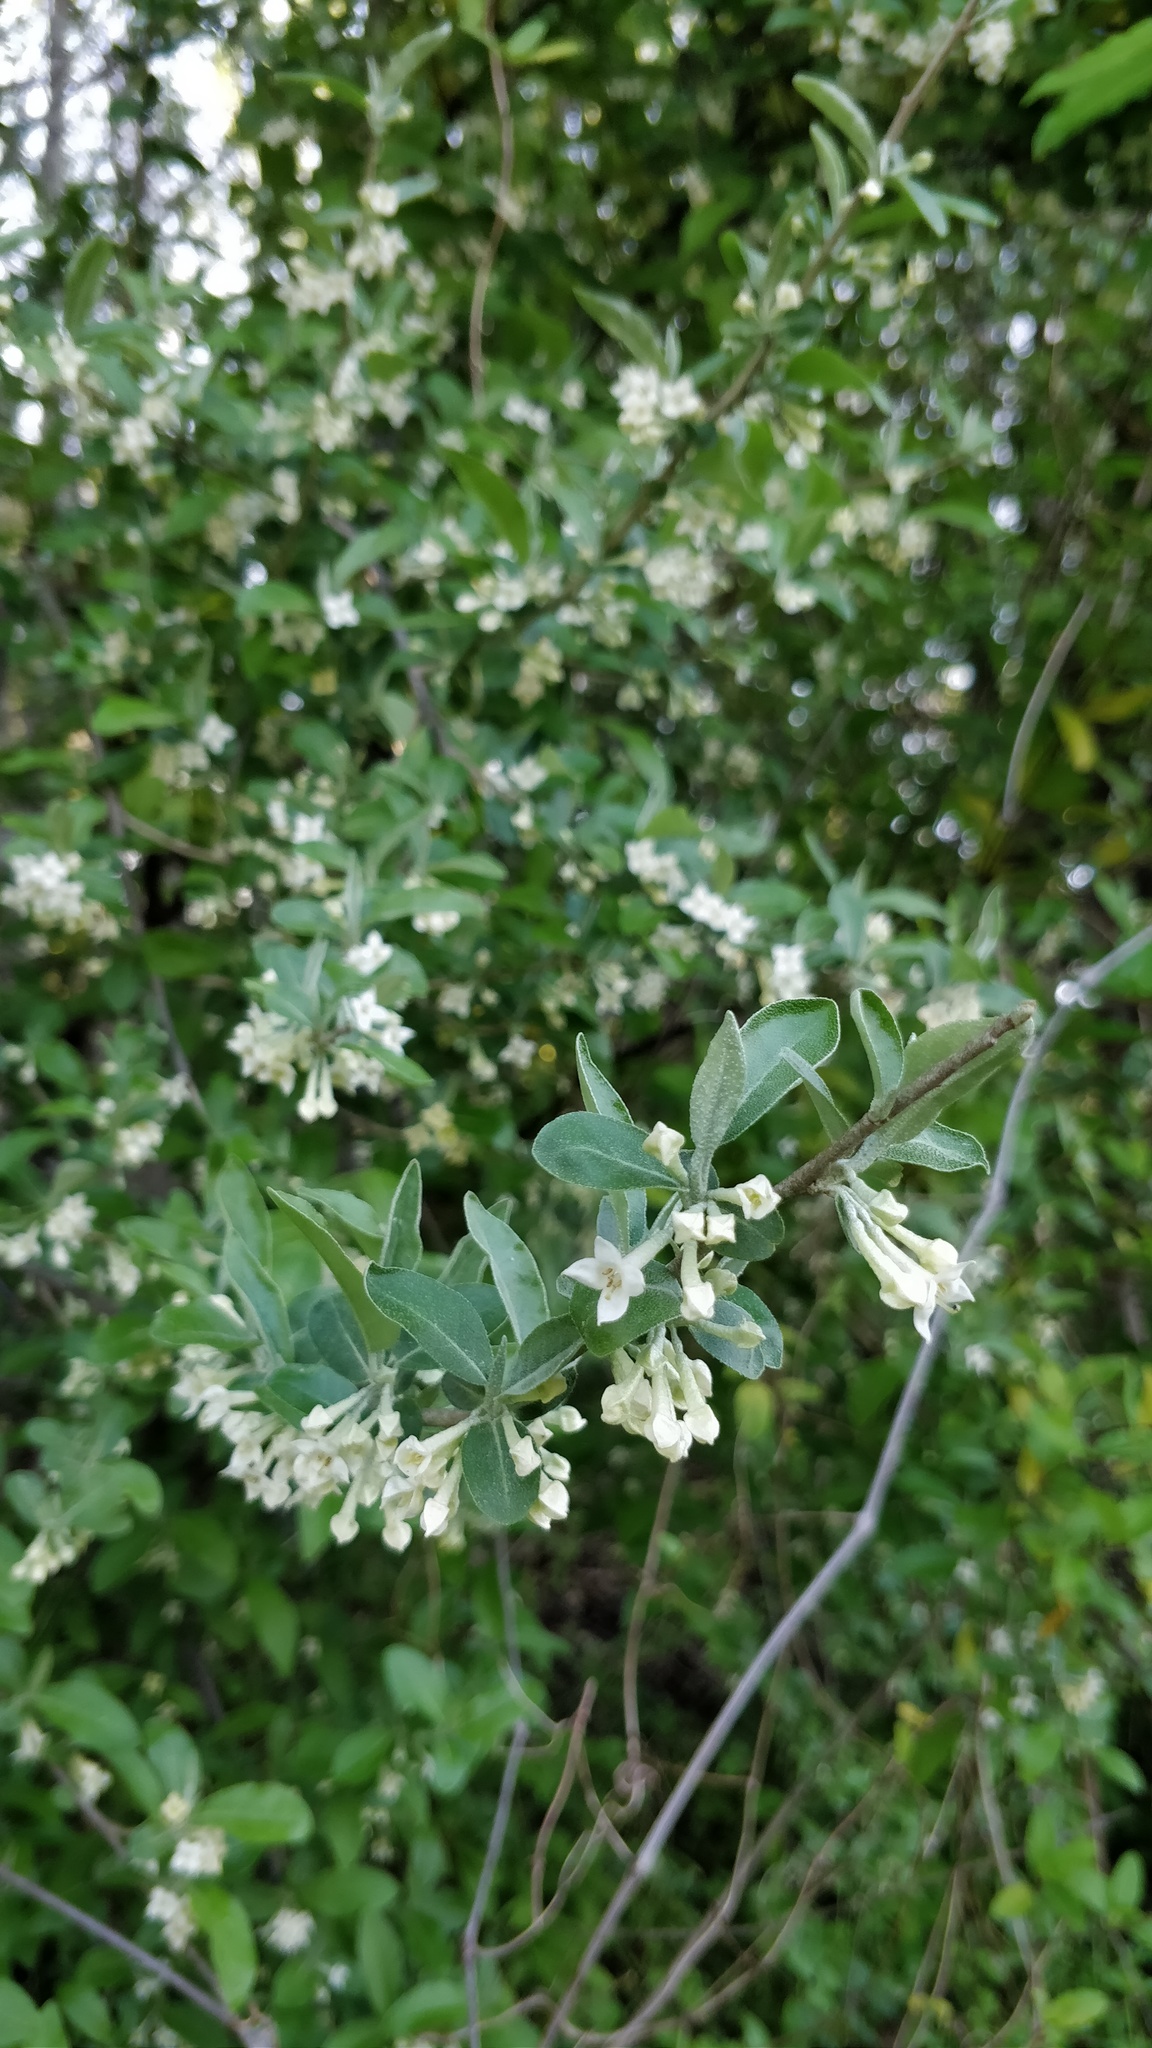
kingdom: Plantae
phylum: Tracheophyta
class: Magnoliopsida
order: Rosales
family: Elaeagnaceae
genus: Elaeagnus
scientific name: Elaeagnus umbellata
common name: Autumn olive
